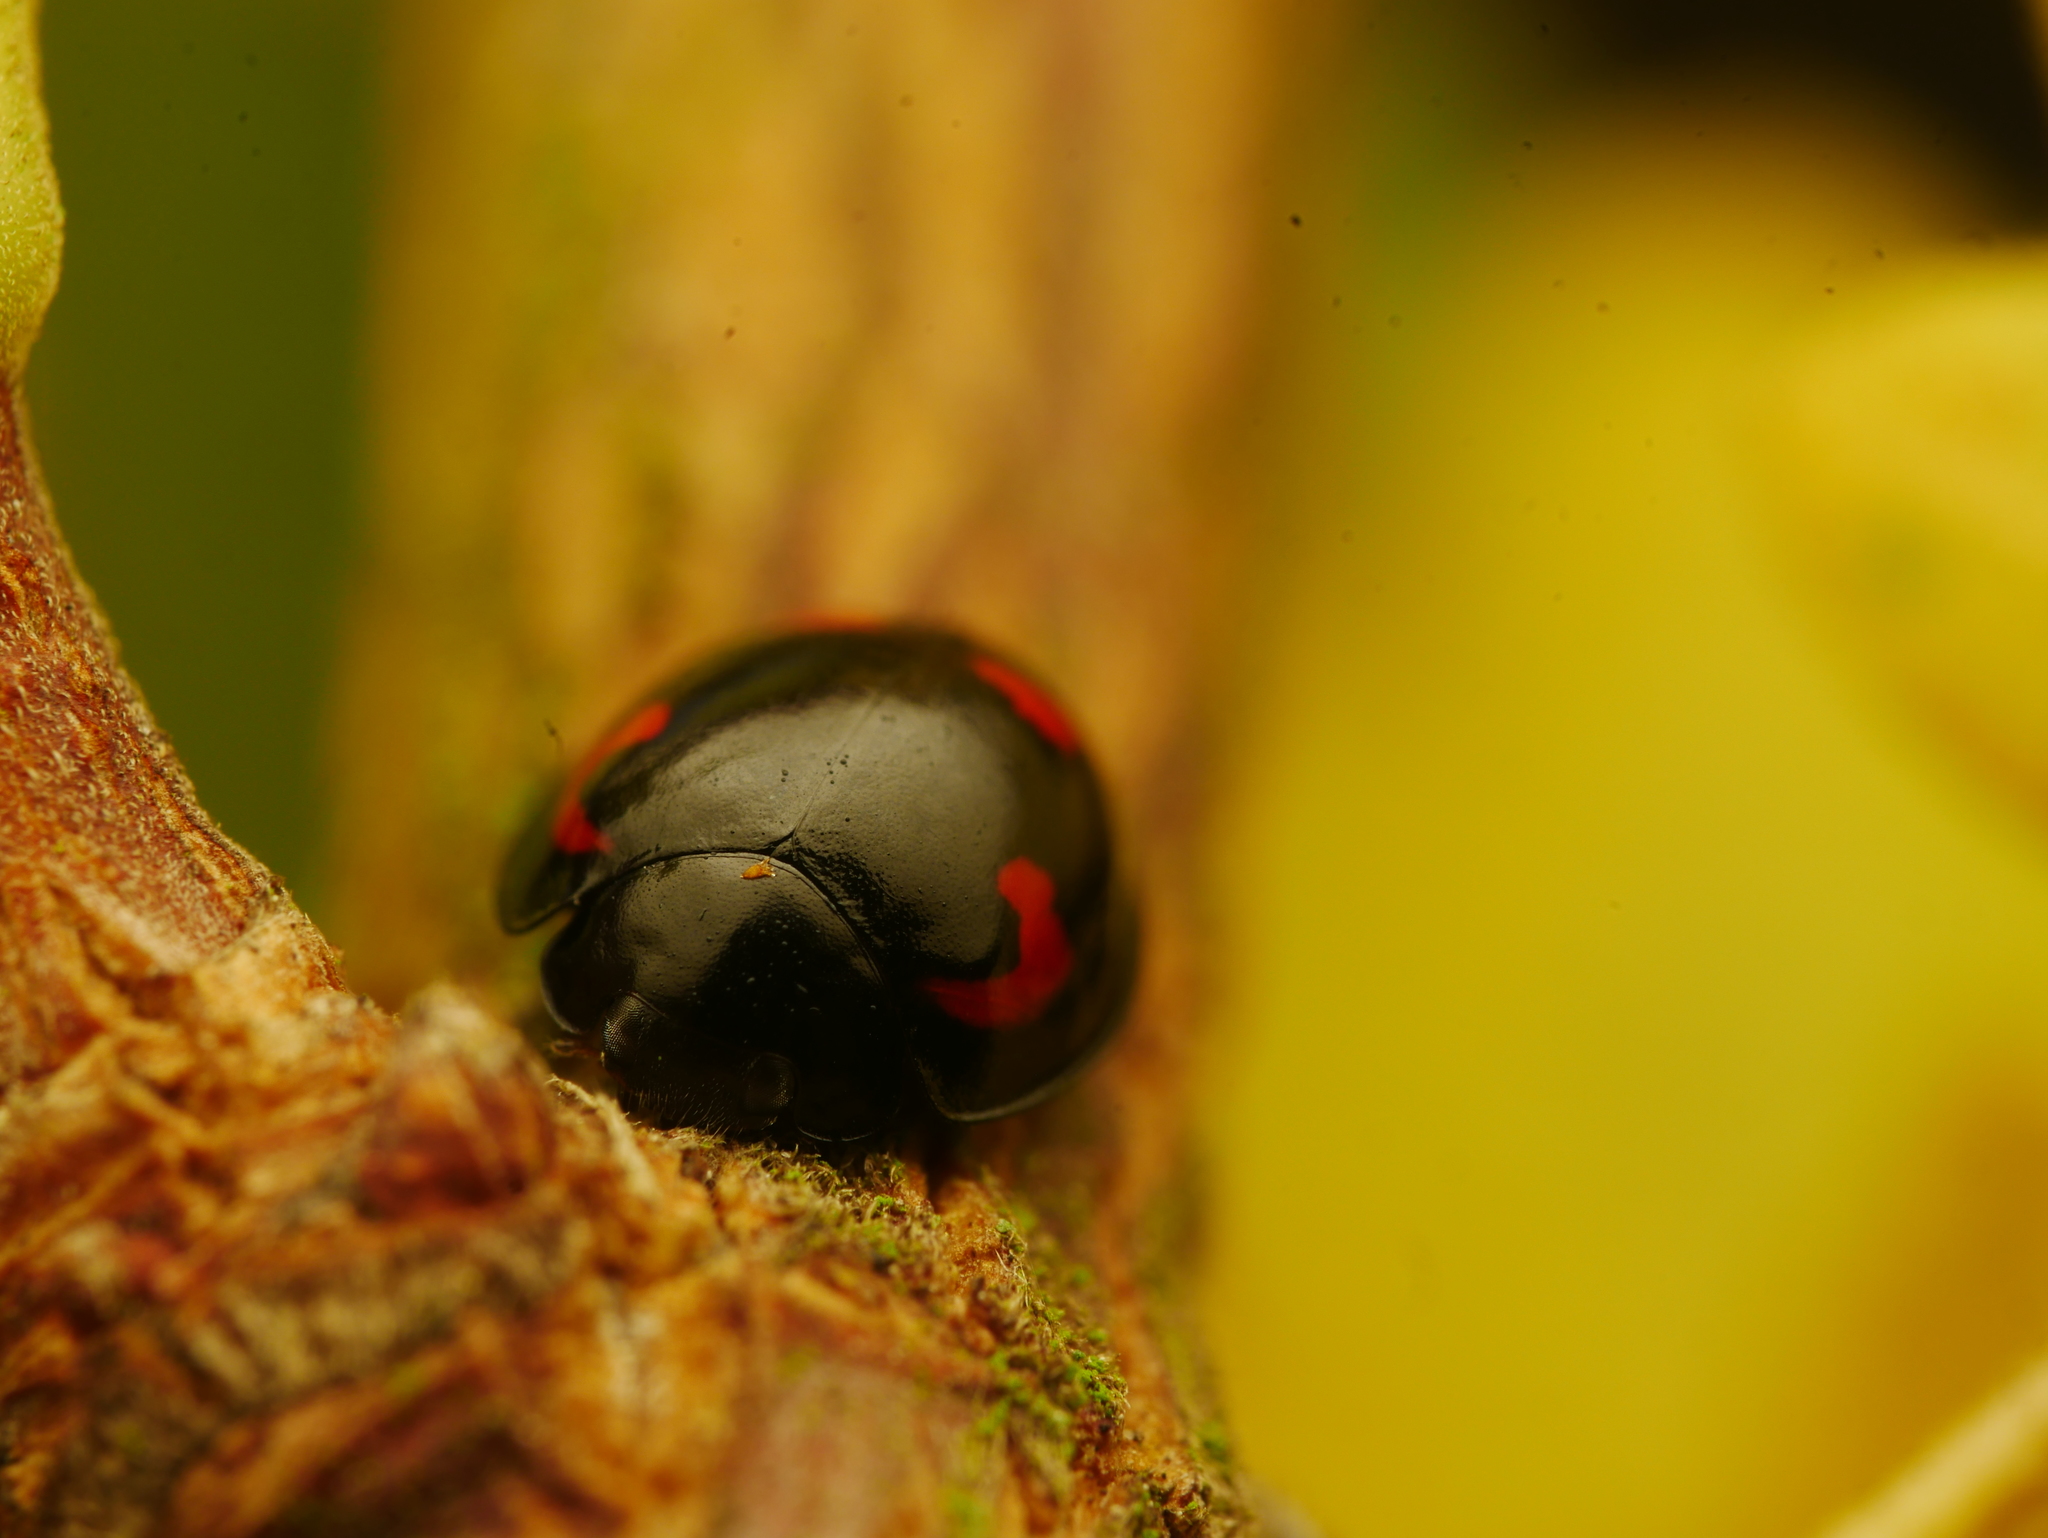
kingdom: Animalia
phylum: Arthropoda
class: Insecta
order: Coleoptera
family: Coccinellidae
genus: Brumus
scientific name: Brumus quadripustulatus
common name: Ladybird beetle
